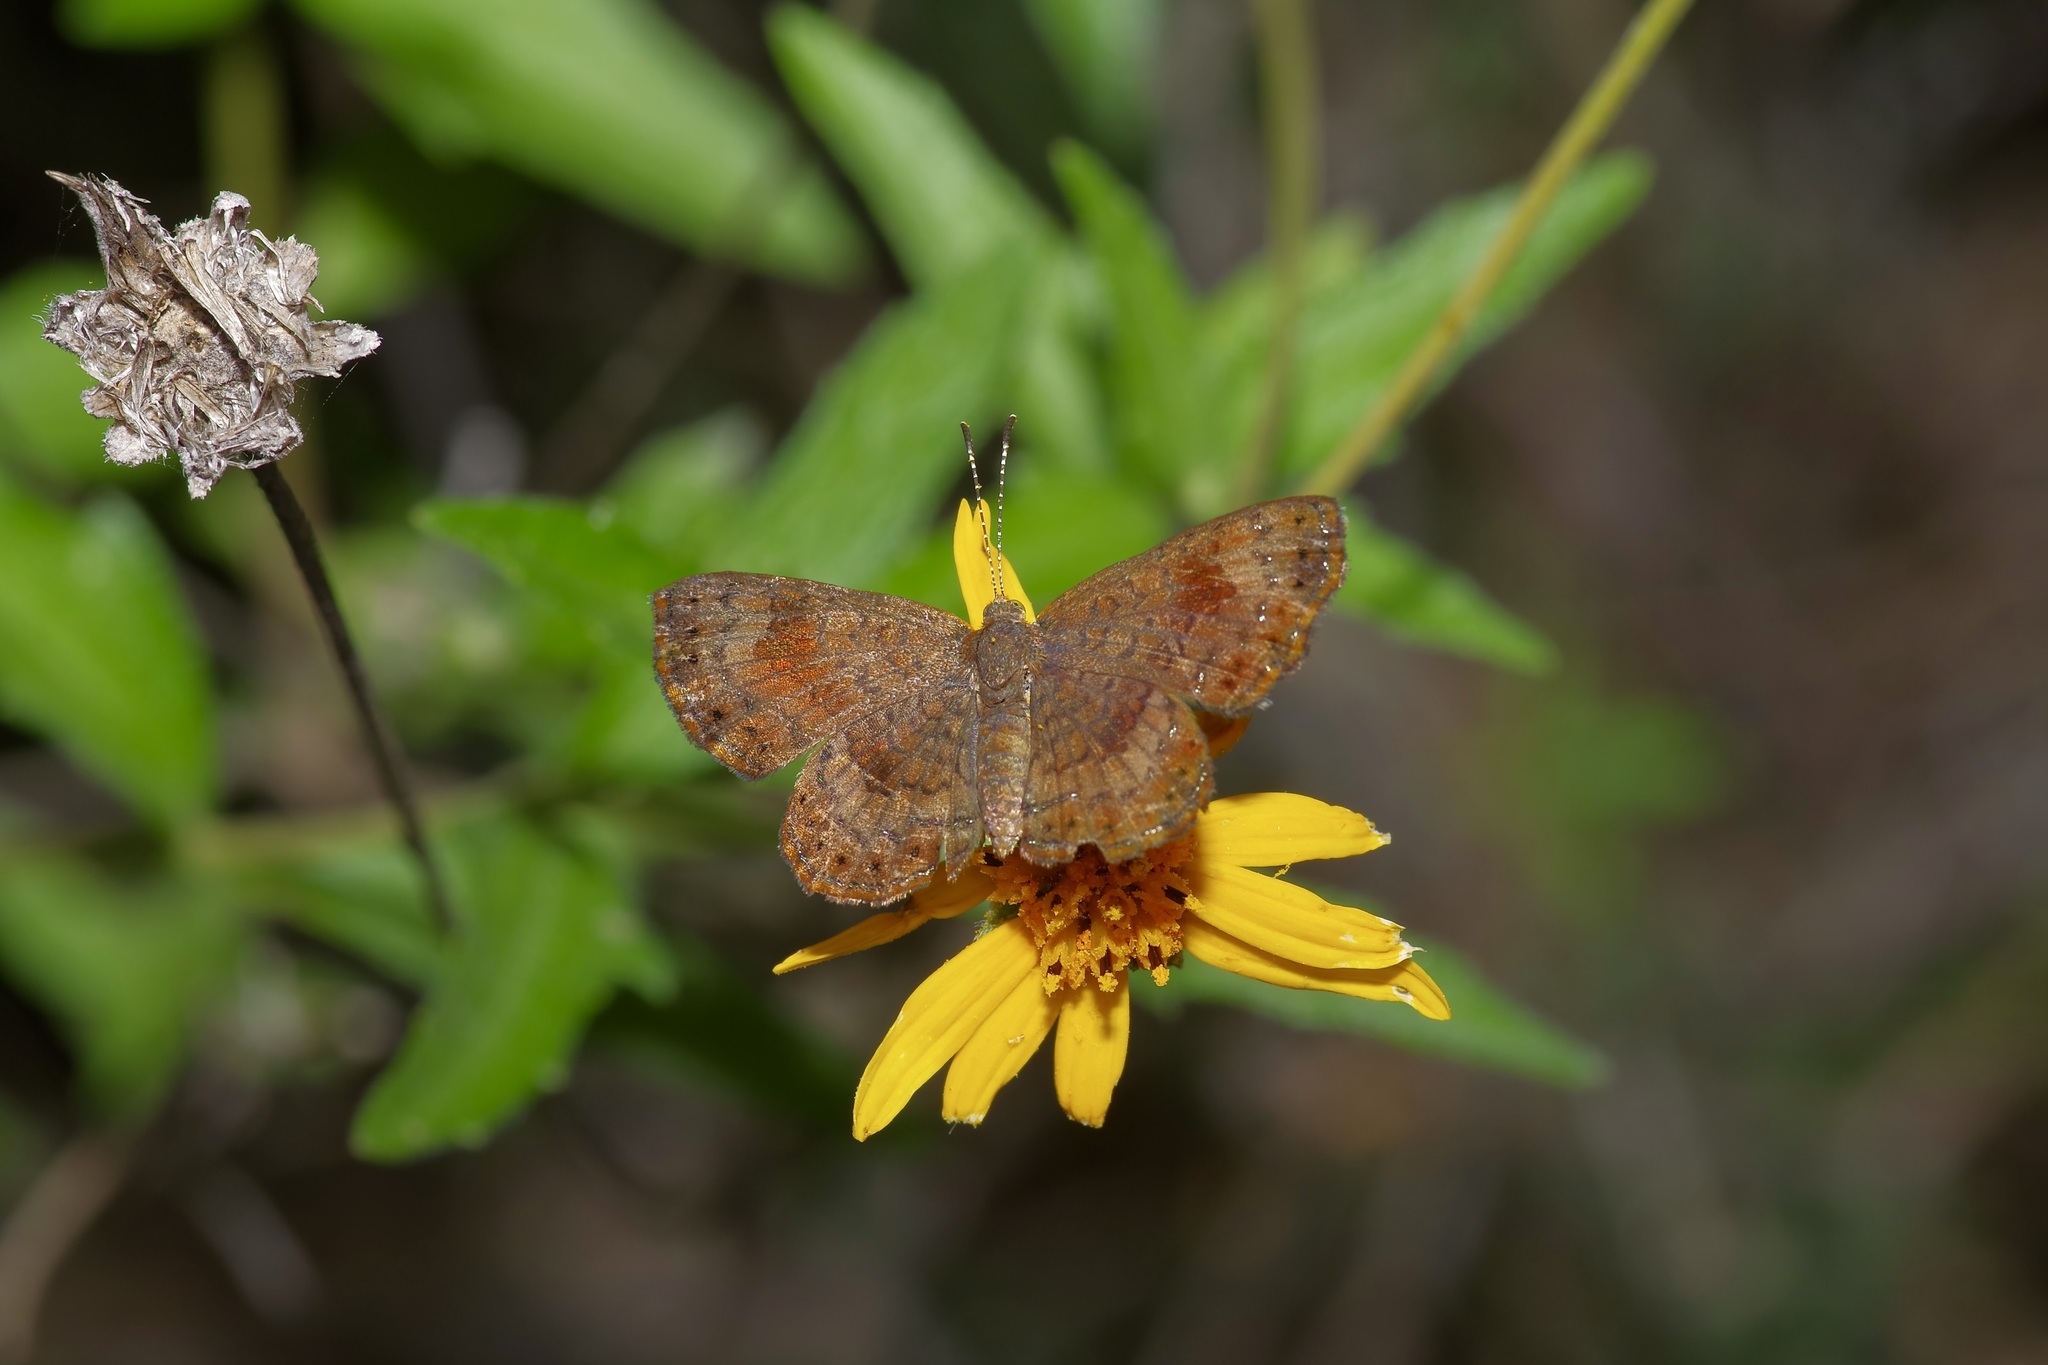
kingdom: Animalia
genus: Calephelis
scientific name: Calephelis nemesis
